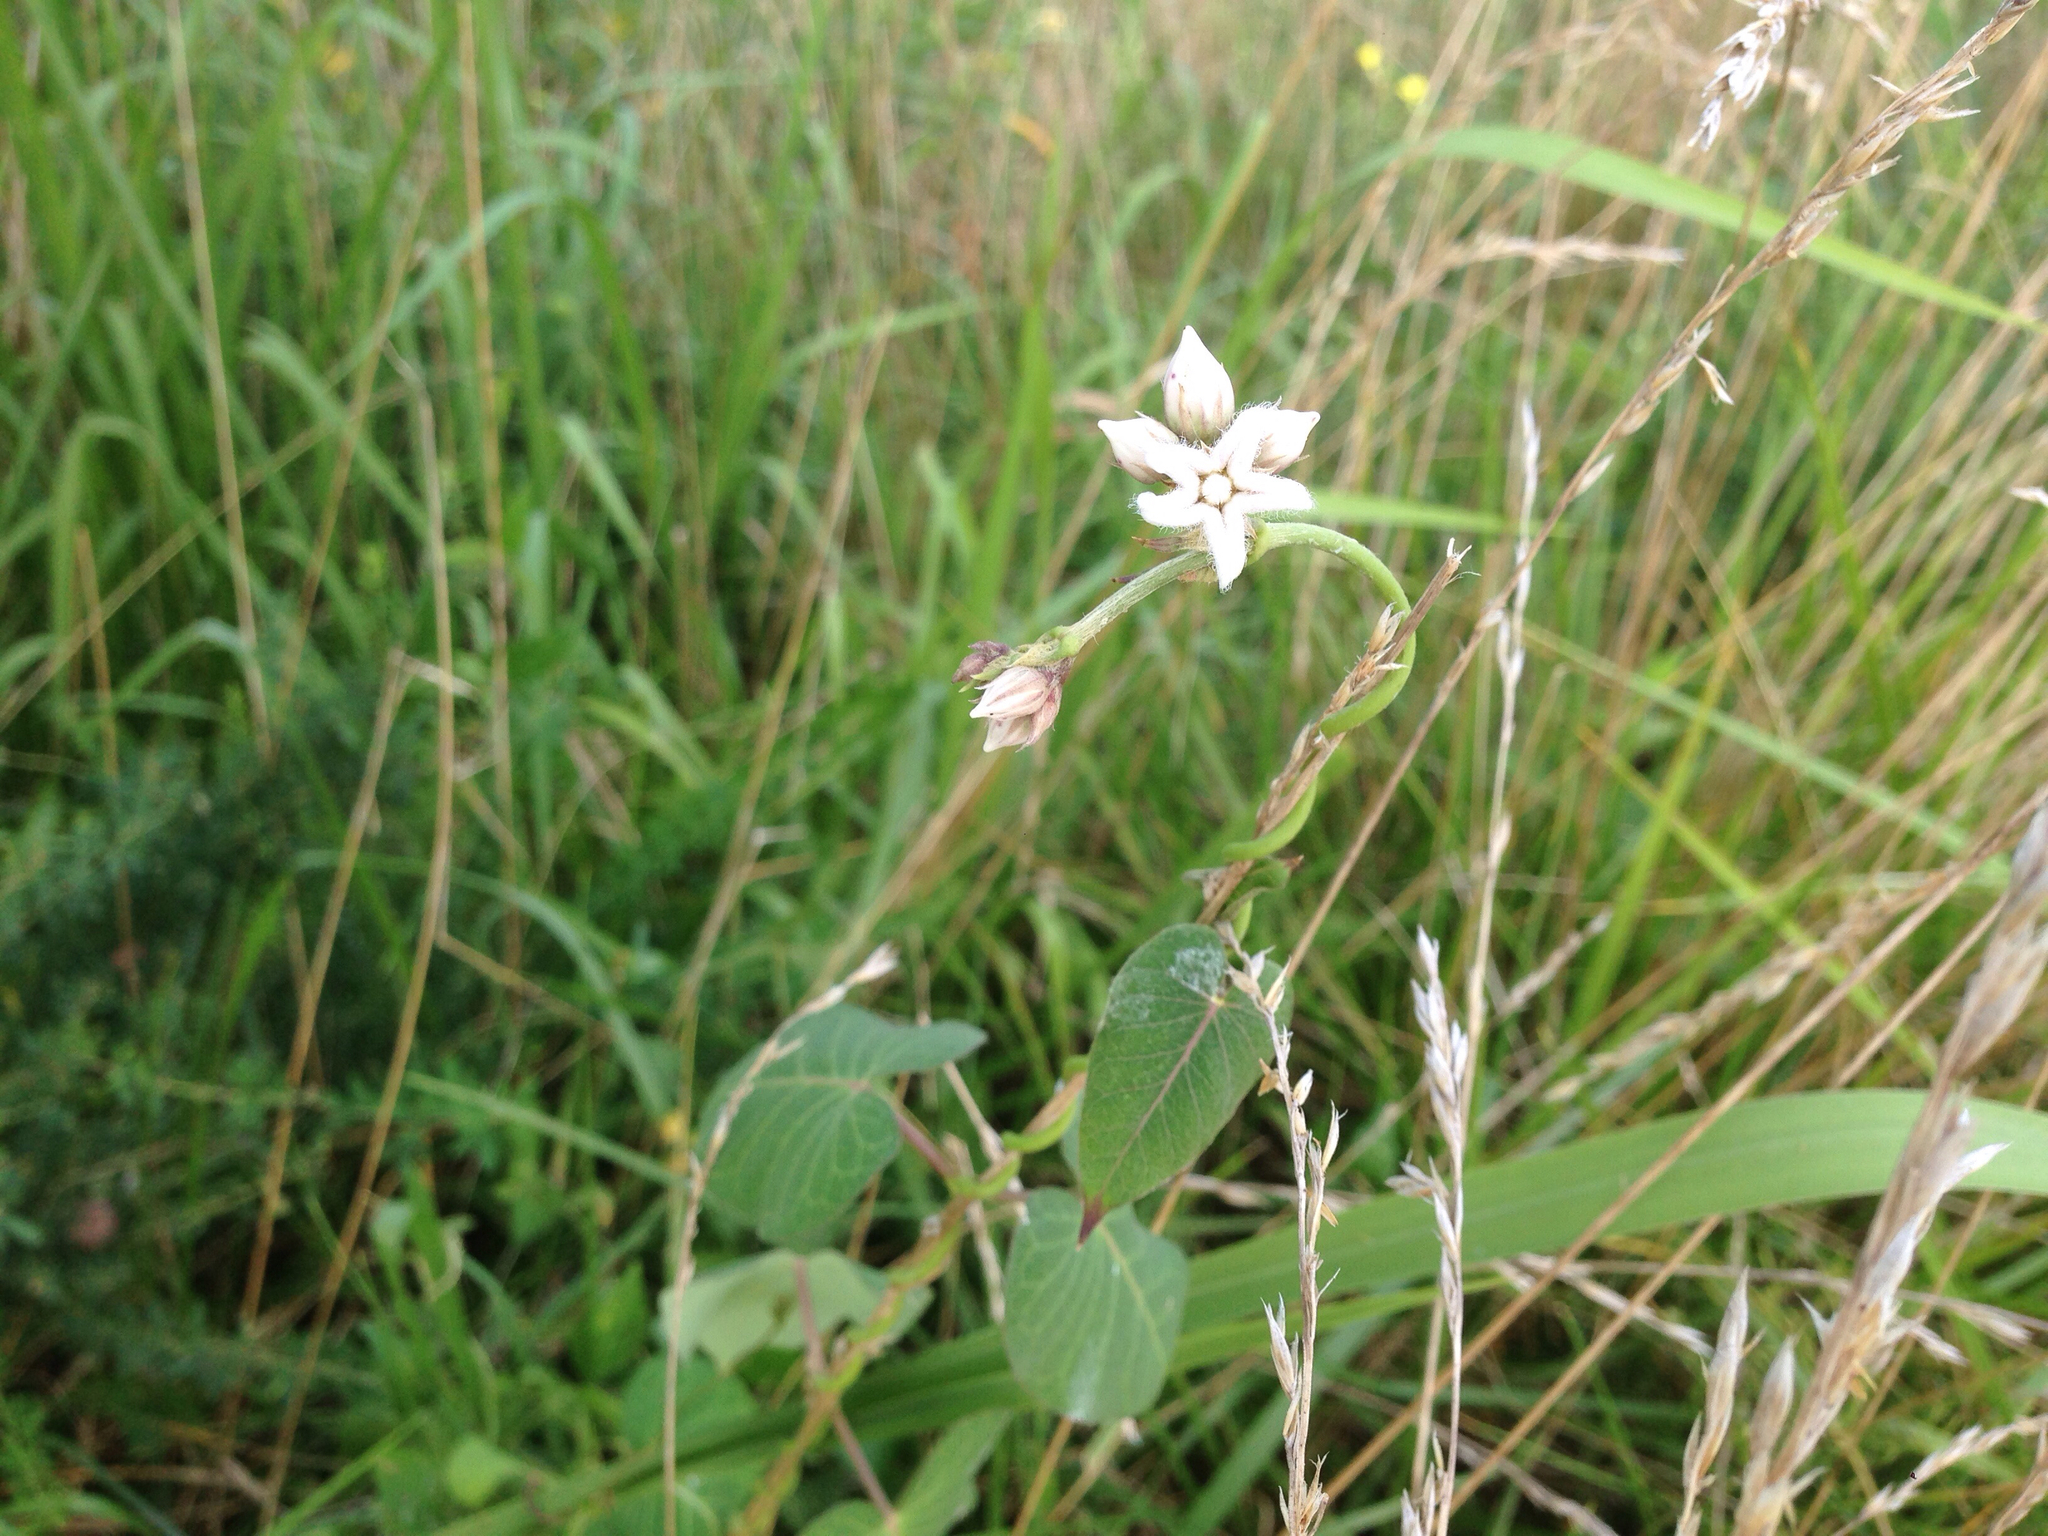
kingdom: Plantae
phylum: Tracheophyta
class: Magnoliopsida
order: Gentianales
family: Apocynaceae
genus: Cynanchum
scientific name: Cynanchum rostellatum
